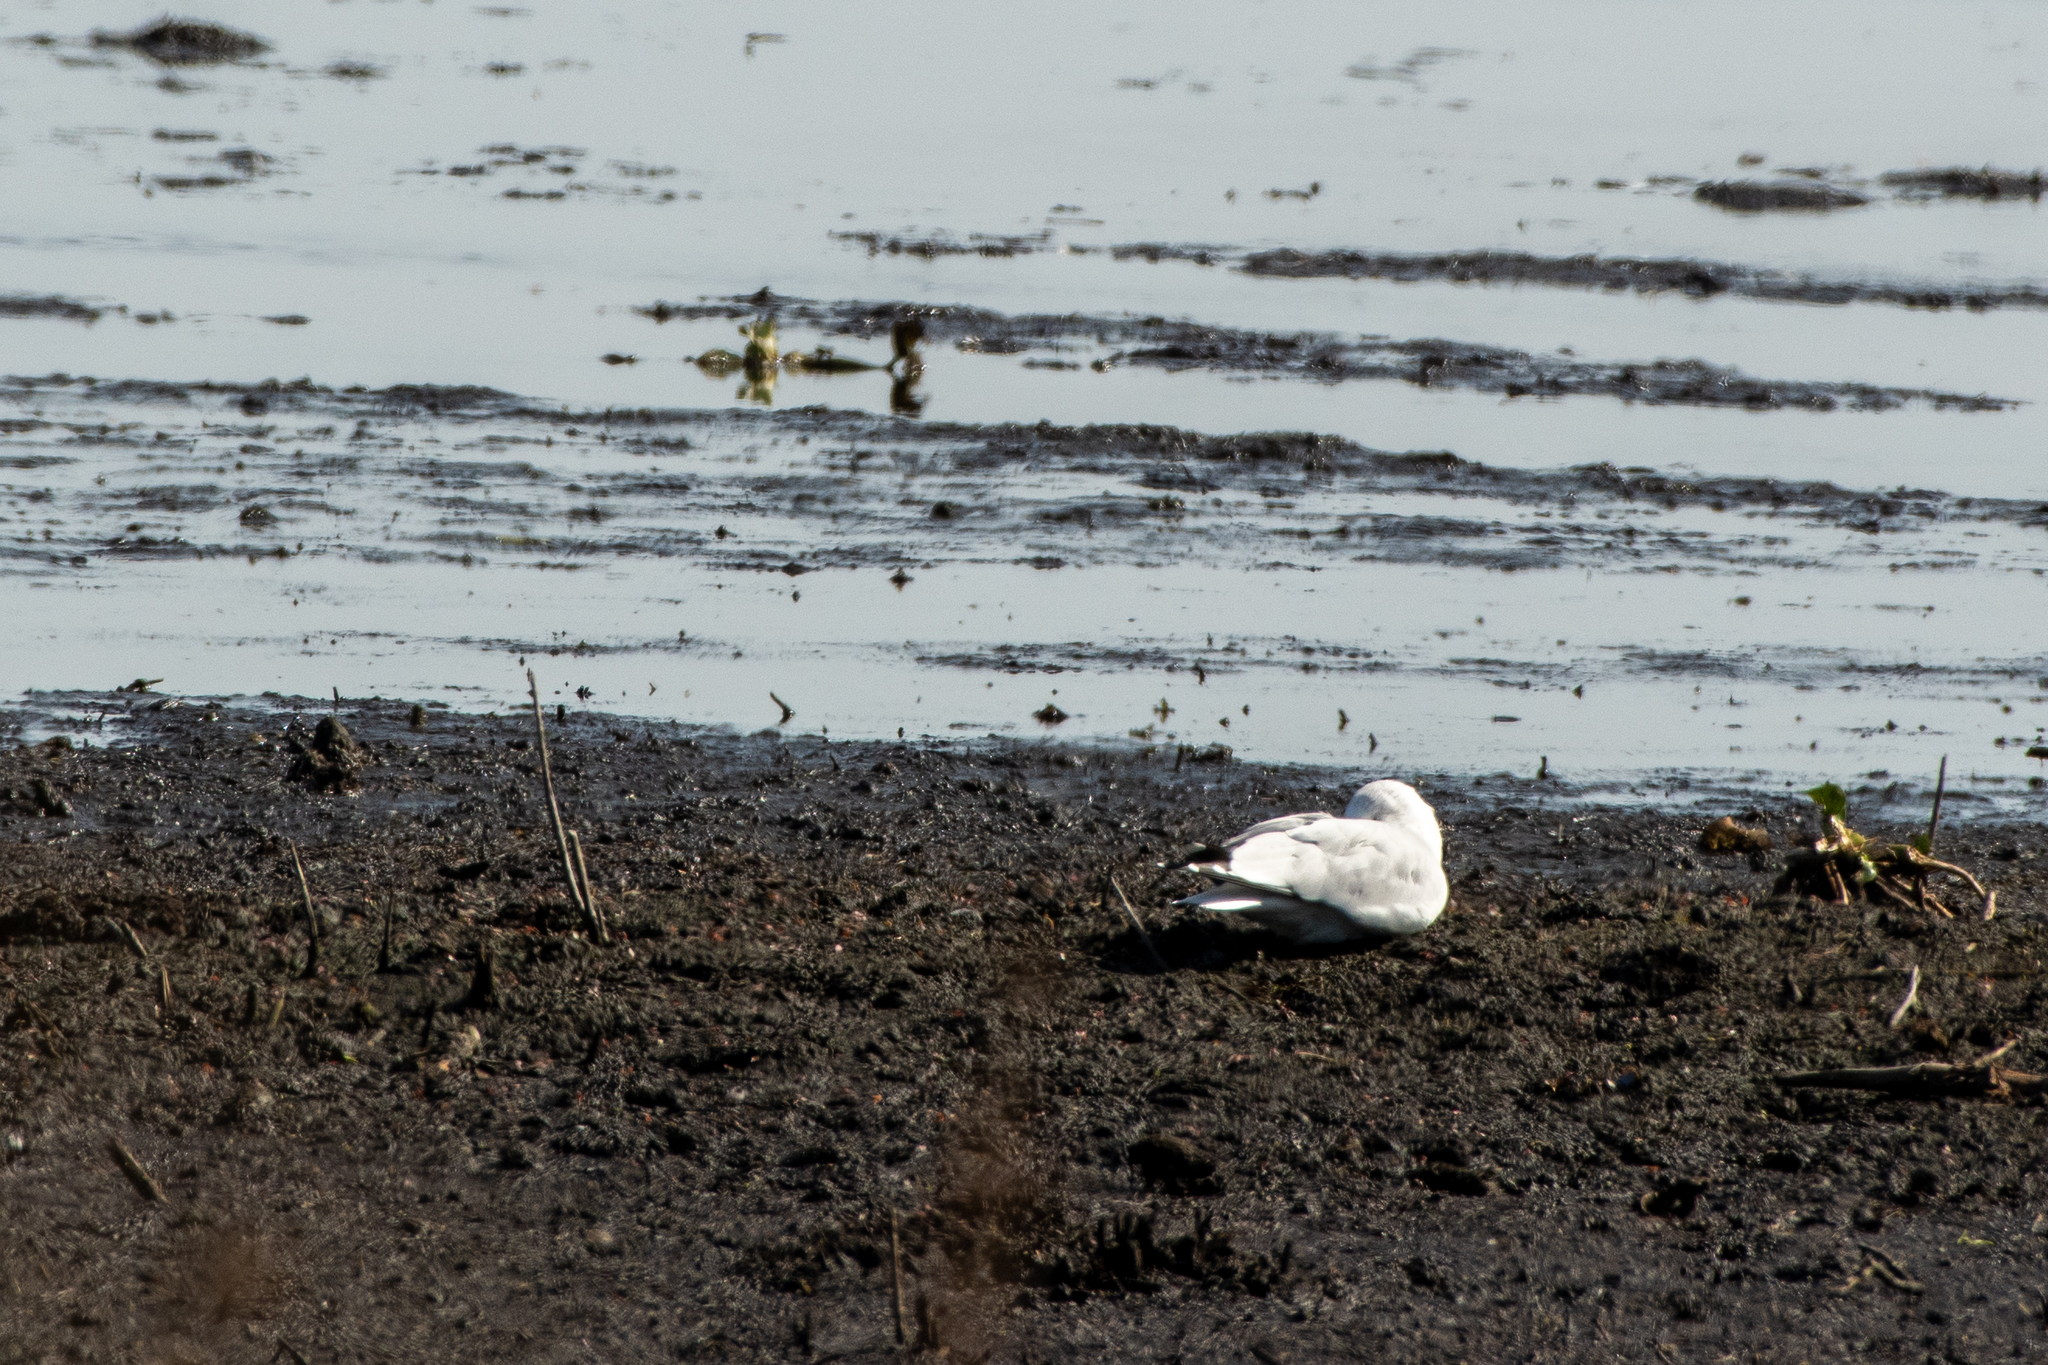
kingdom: Animalia
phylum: Chordata
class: Aves
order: Charadriiformes
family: Laridae
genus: Larus
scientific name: Larus delawarensis
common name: Ring-billed gull
